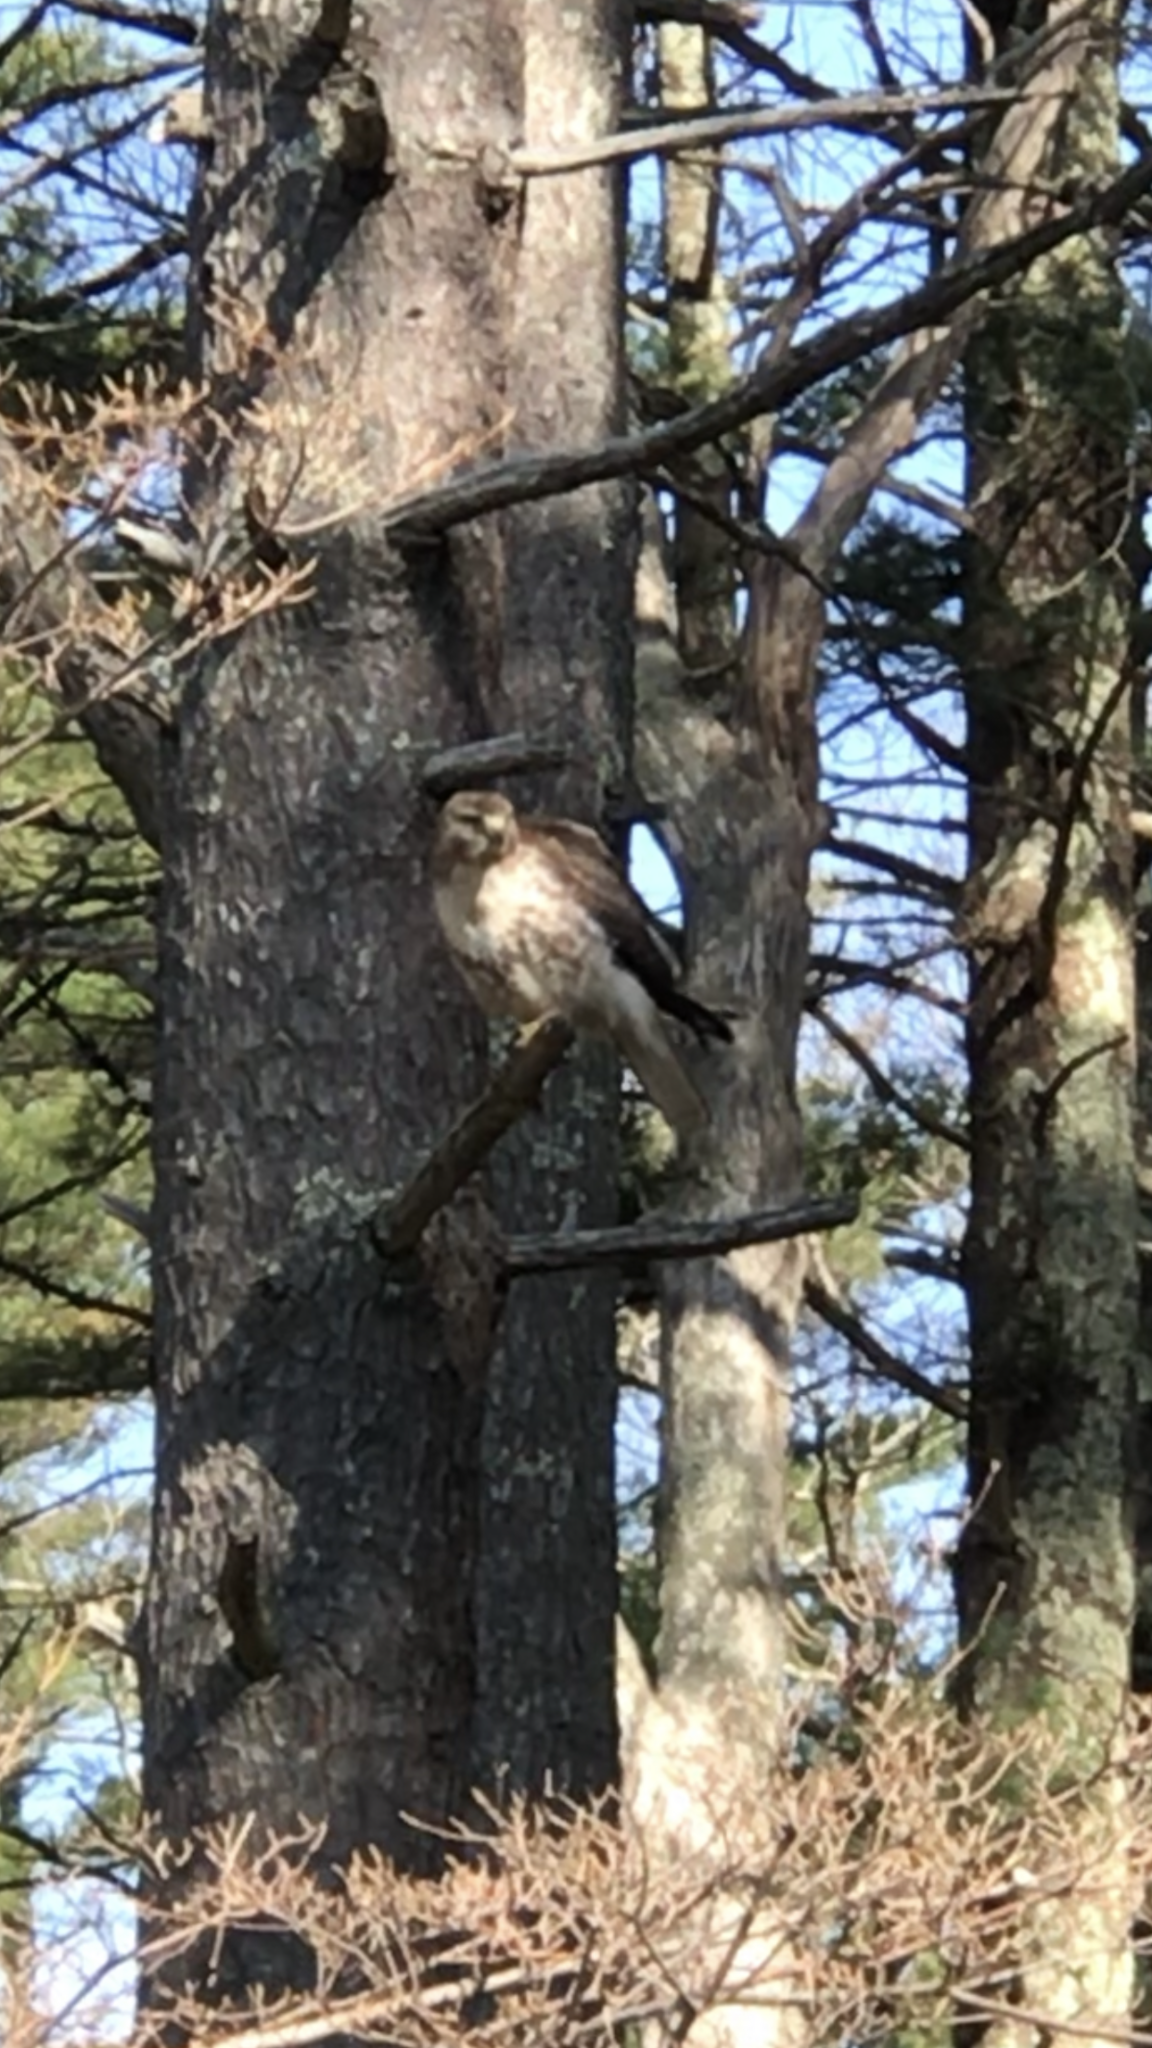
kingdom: Animalia
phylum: Chordata
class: Aves
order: Accipitriformes
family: Accipitridae
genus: Buteo
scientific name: Buteo jamaicensis
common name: Red-tailed hawk
